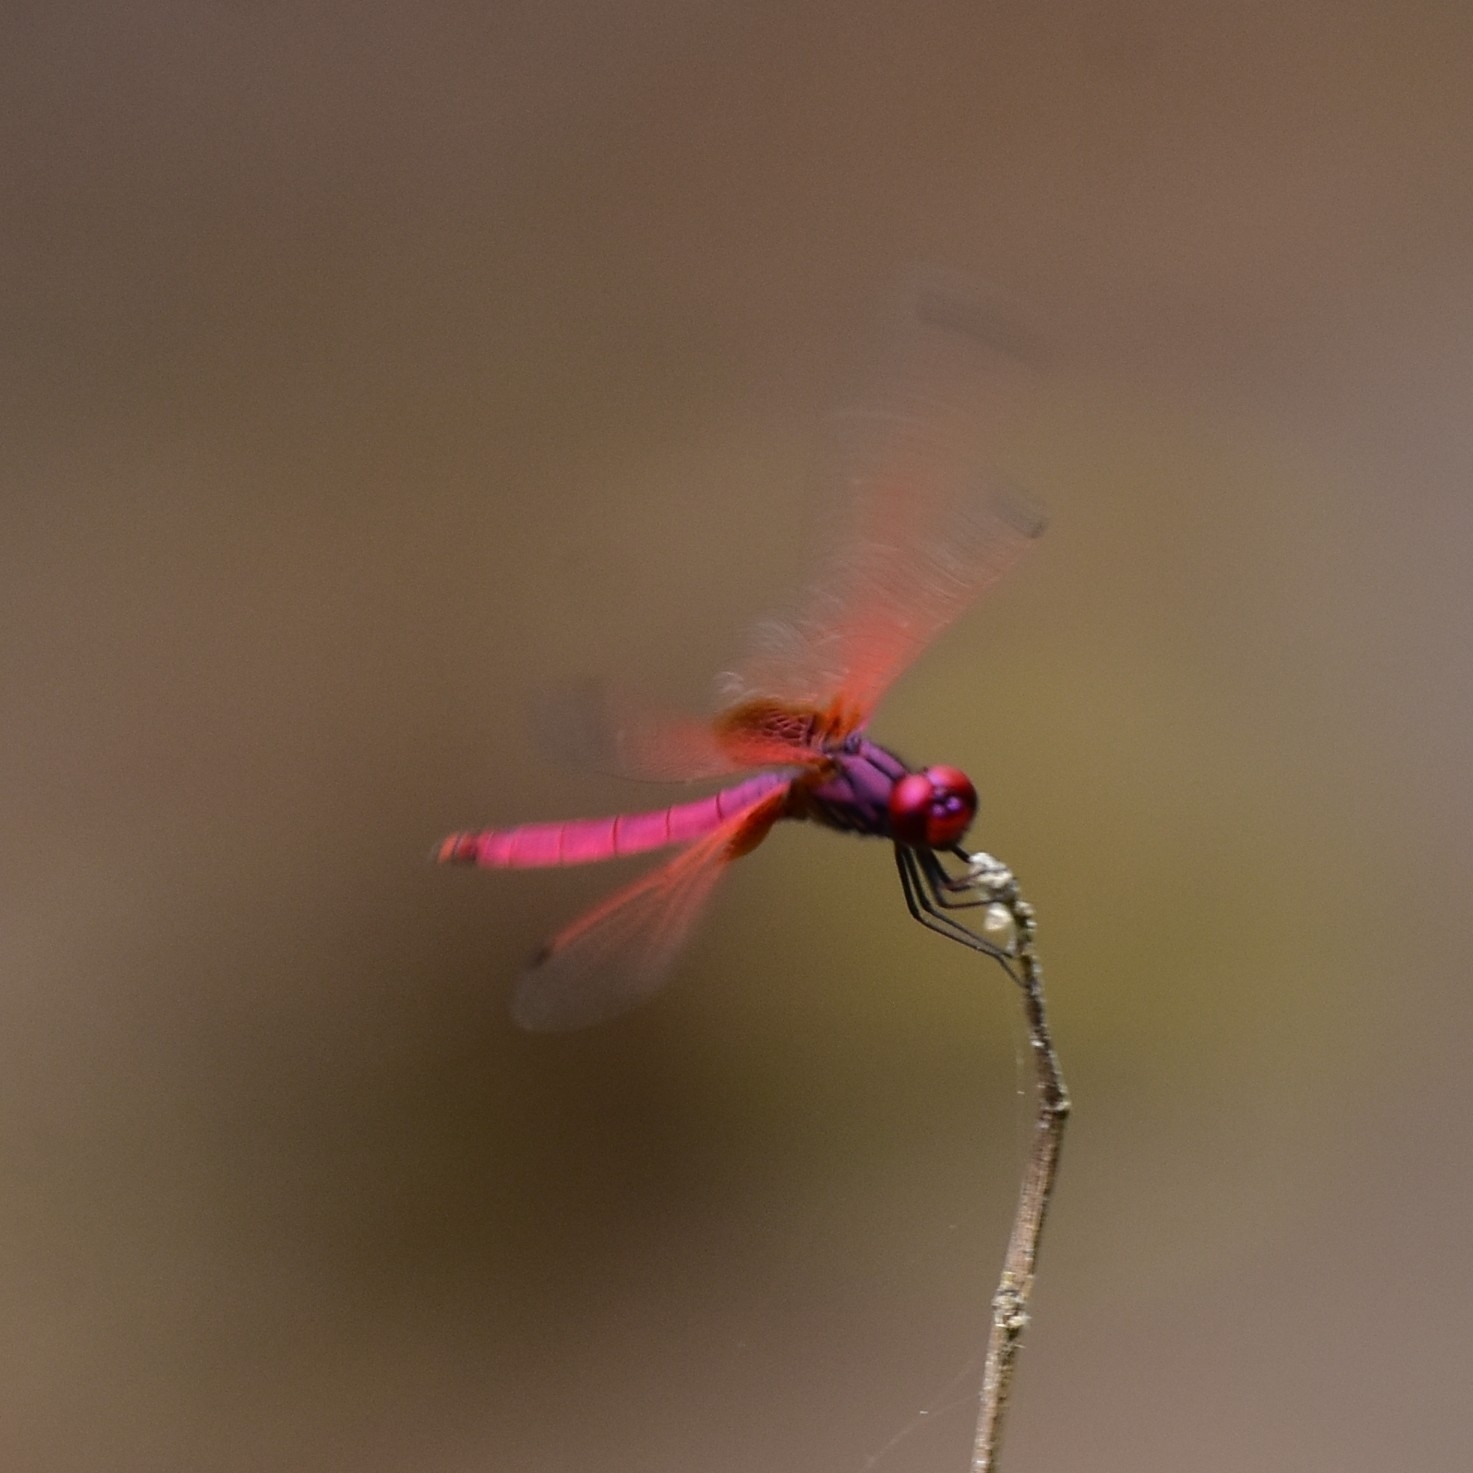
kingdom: Animalia
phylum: Arthropoda
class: Insecta
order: Odonata
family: Libellulidae
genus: Trithemis
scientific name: Trithemis aurora
